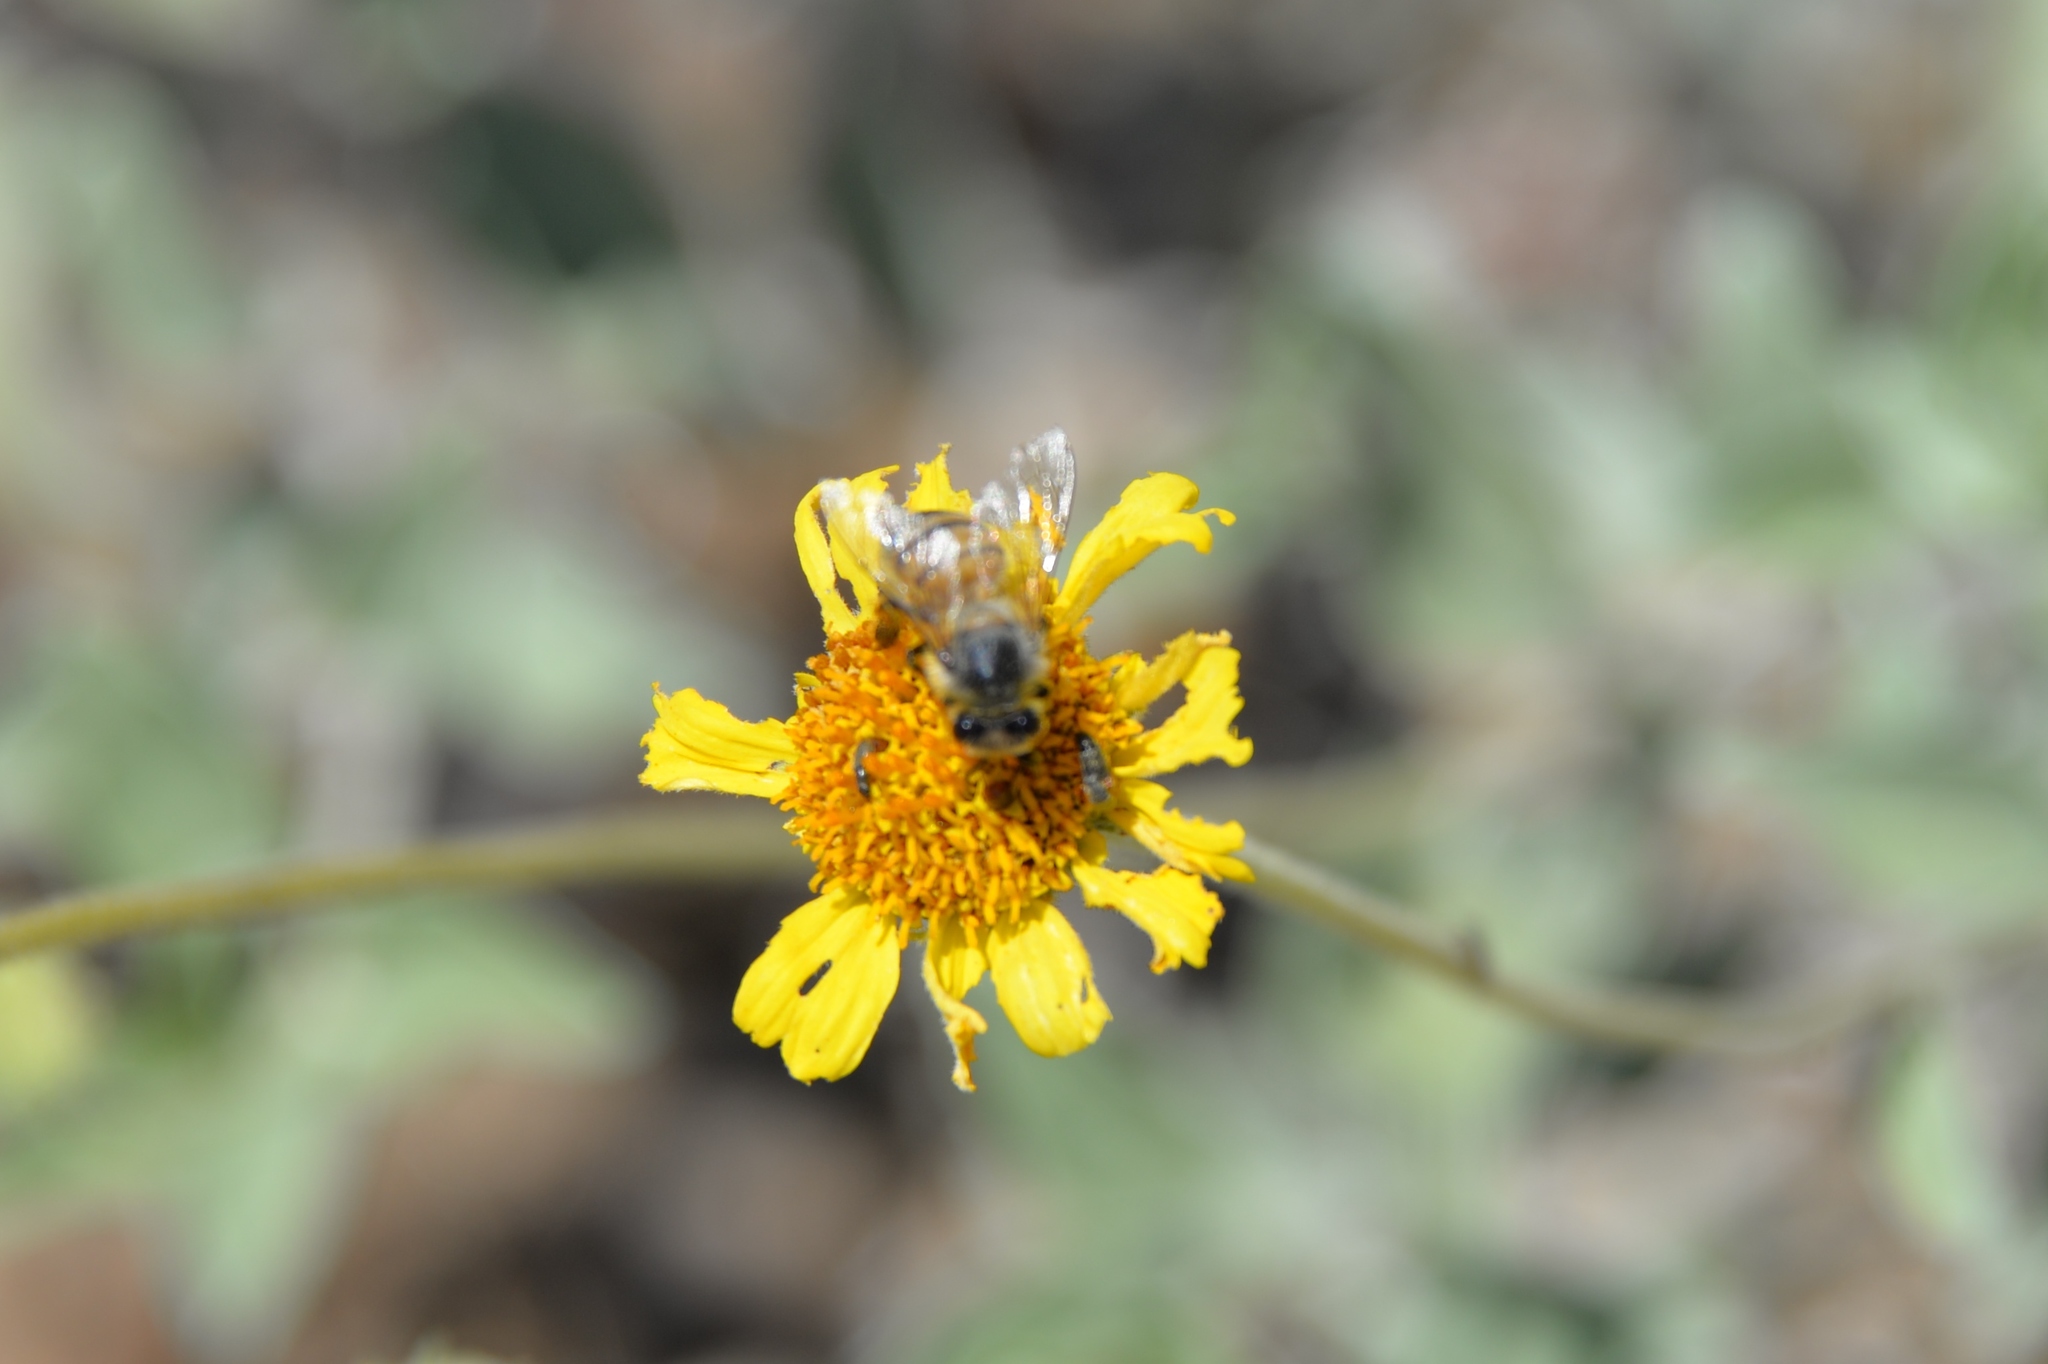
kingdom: Plantae
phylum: Tracheophyta
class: Magnoliopsida
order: Asterales
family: Asteraceae
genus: Encelia
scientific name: Encelia actoni
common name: Acton encelia
